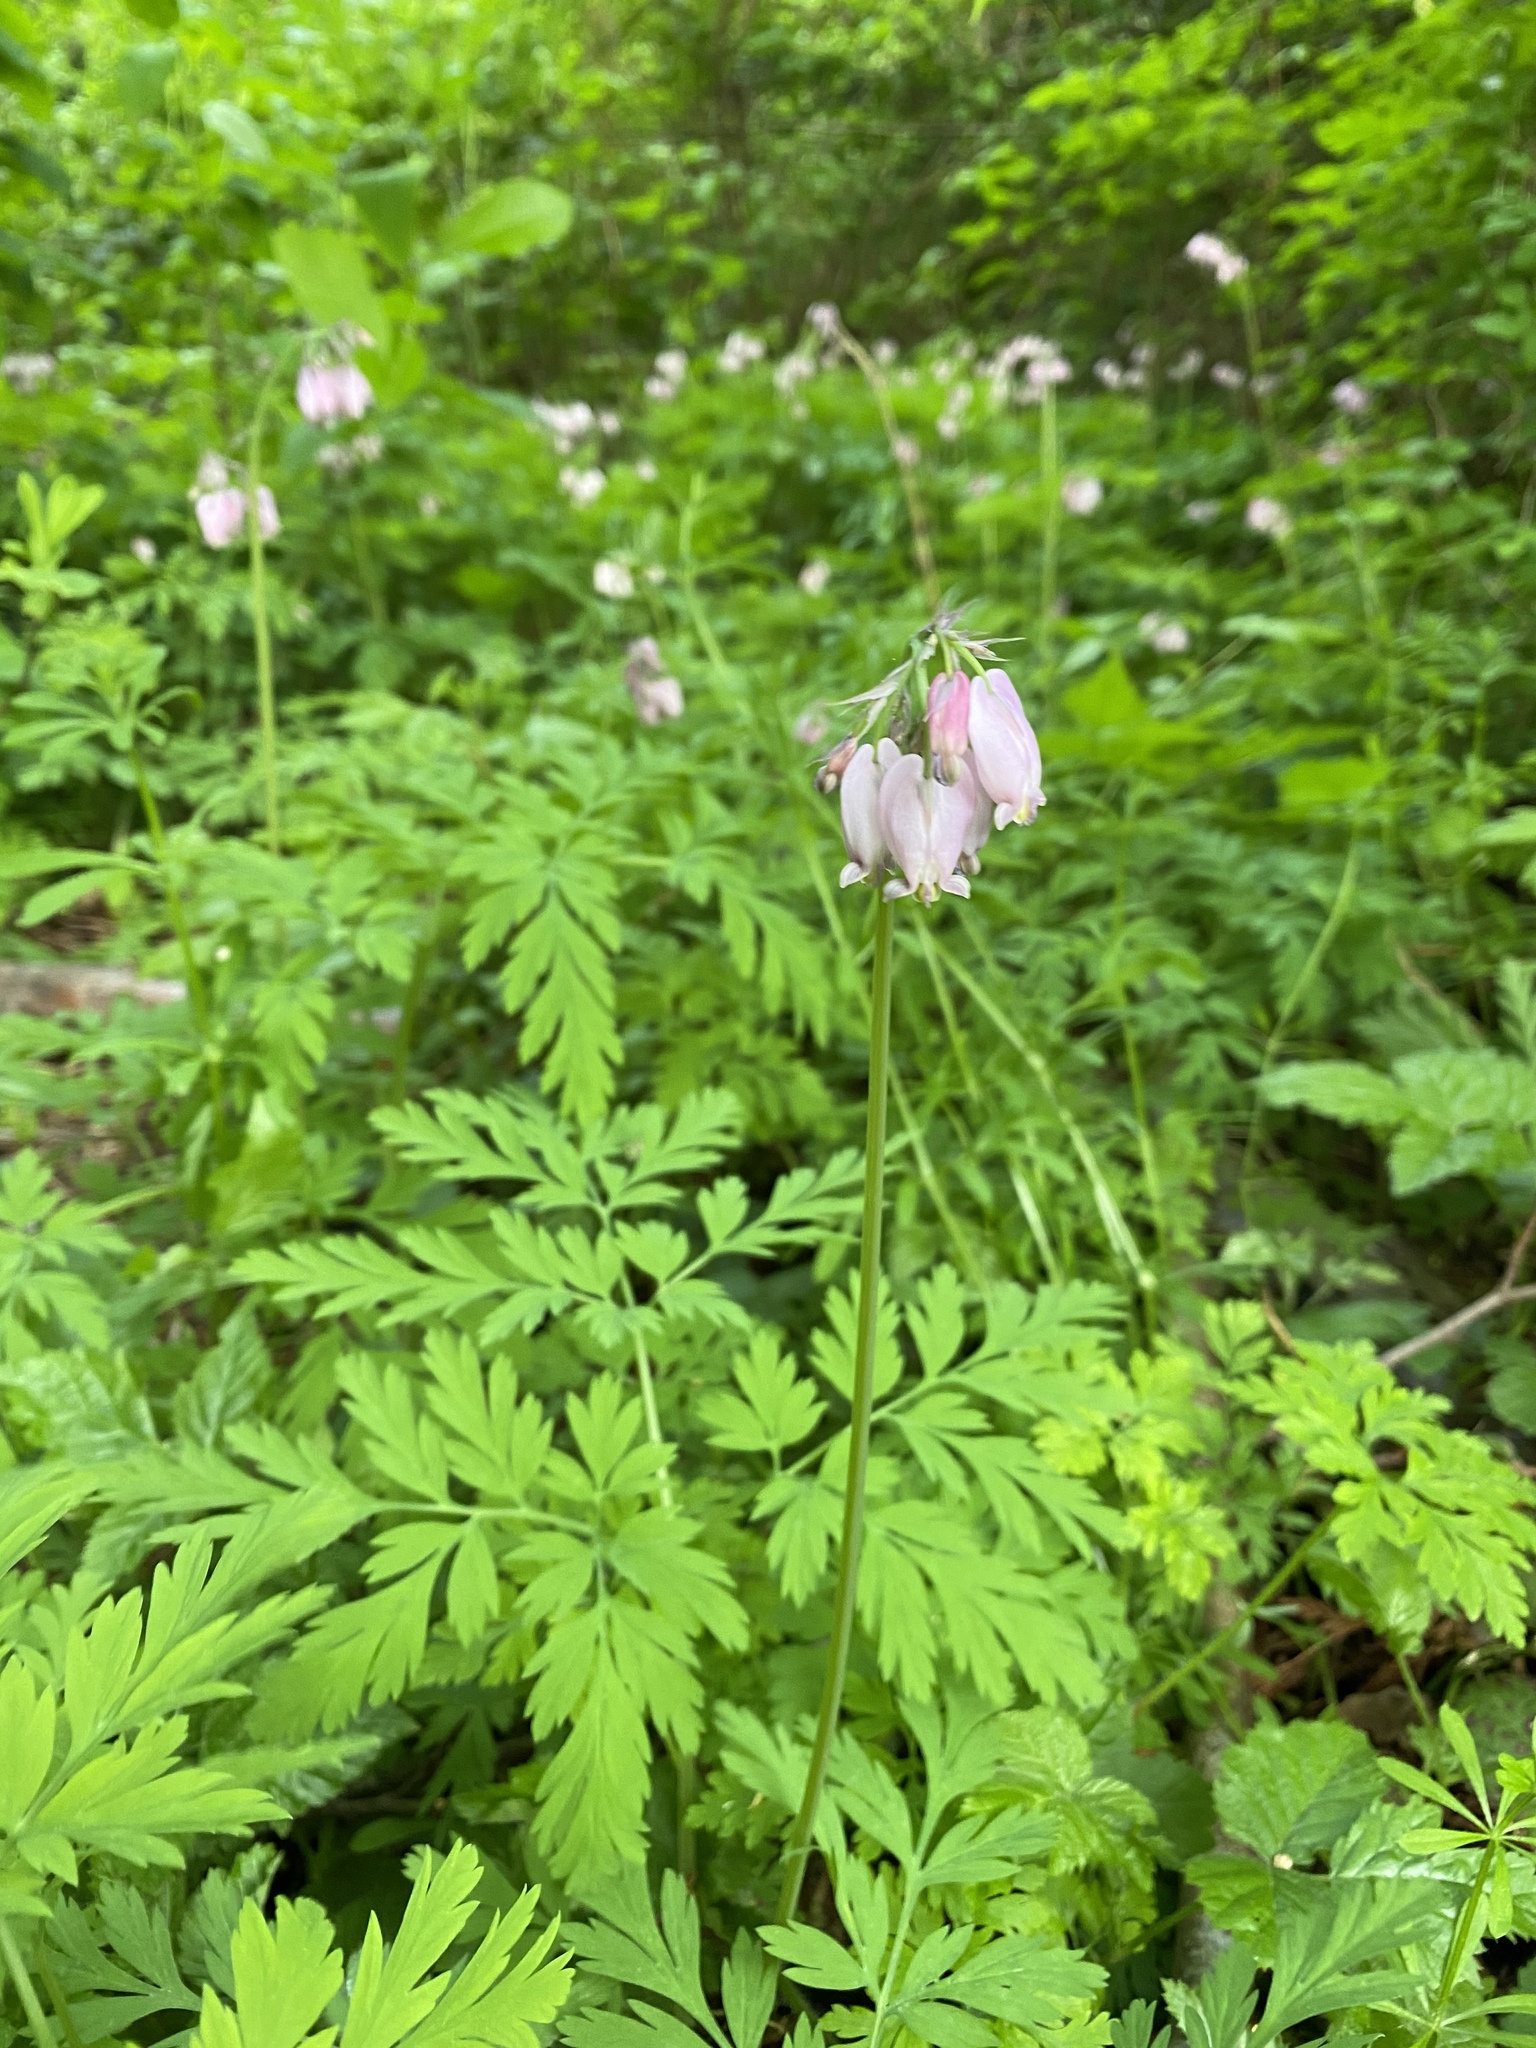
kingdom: Plantae
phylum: Tracheophyta
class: Magnoliopsida
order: Ranunculales
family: Papaveraceae
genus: Dicentra
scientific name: Dicentra formosa
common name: Bleeding-heart
